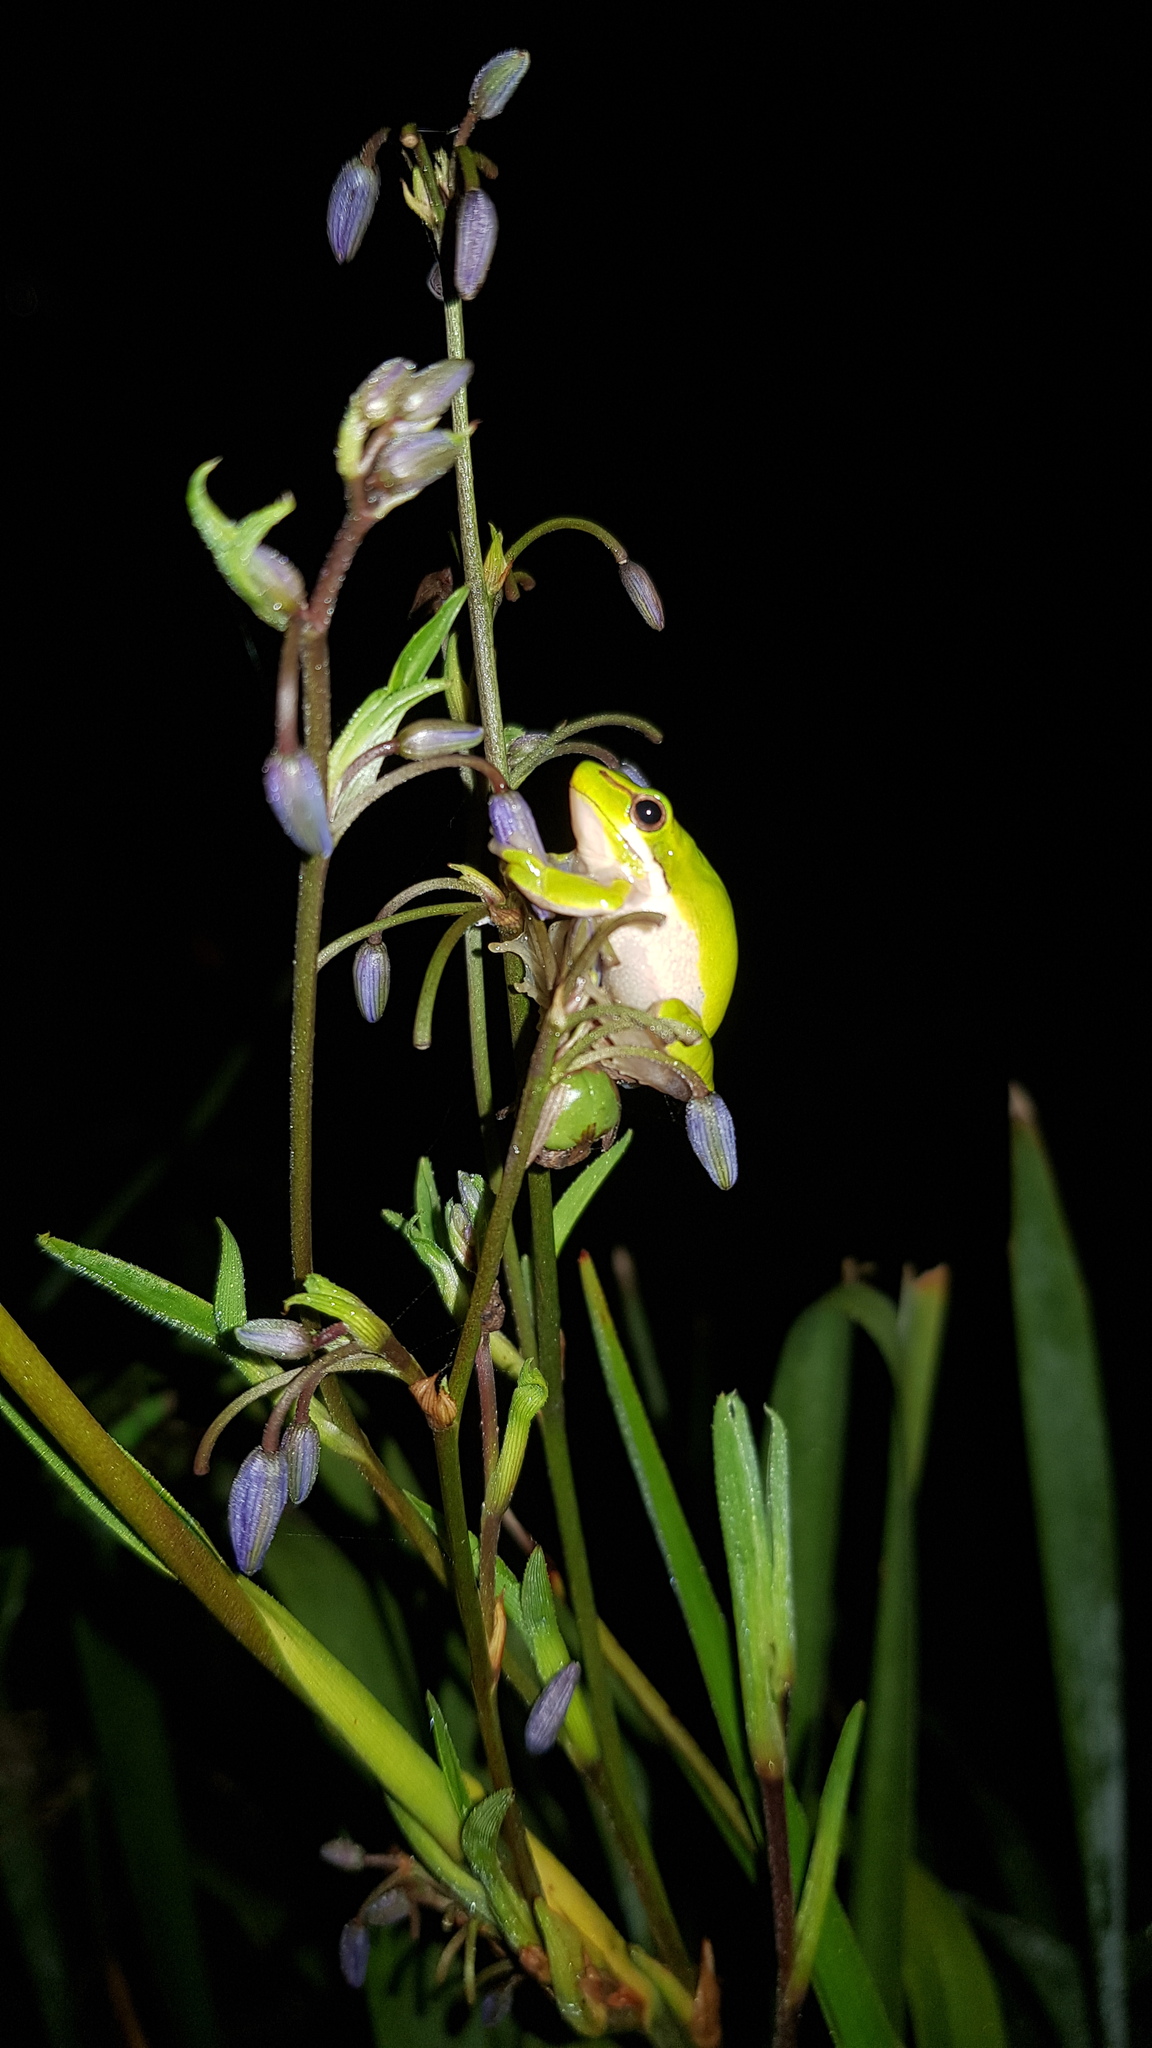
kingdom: Animalia
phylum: Chordata
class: Amphibia
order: Anura
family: Pelodryadidae
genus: Litoria
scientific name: Litoria fallax
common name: Eastern dwarf treefrog
